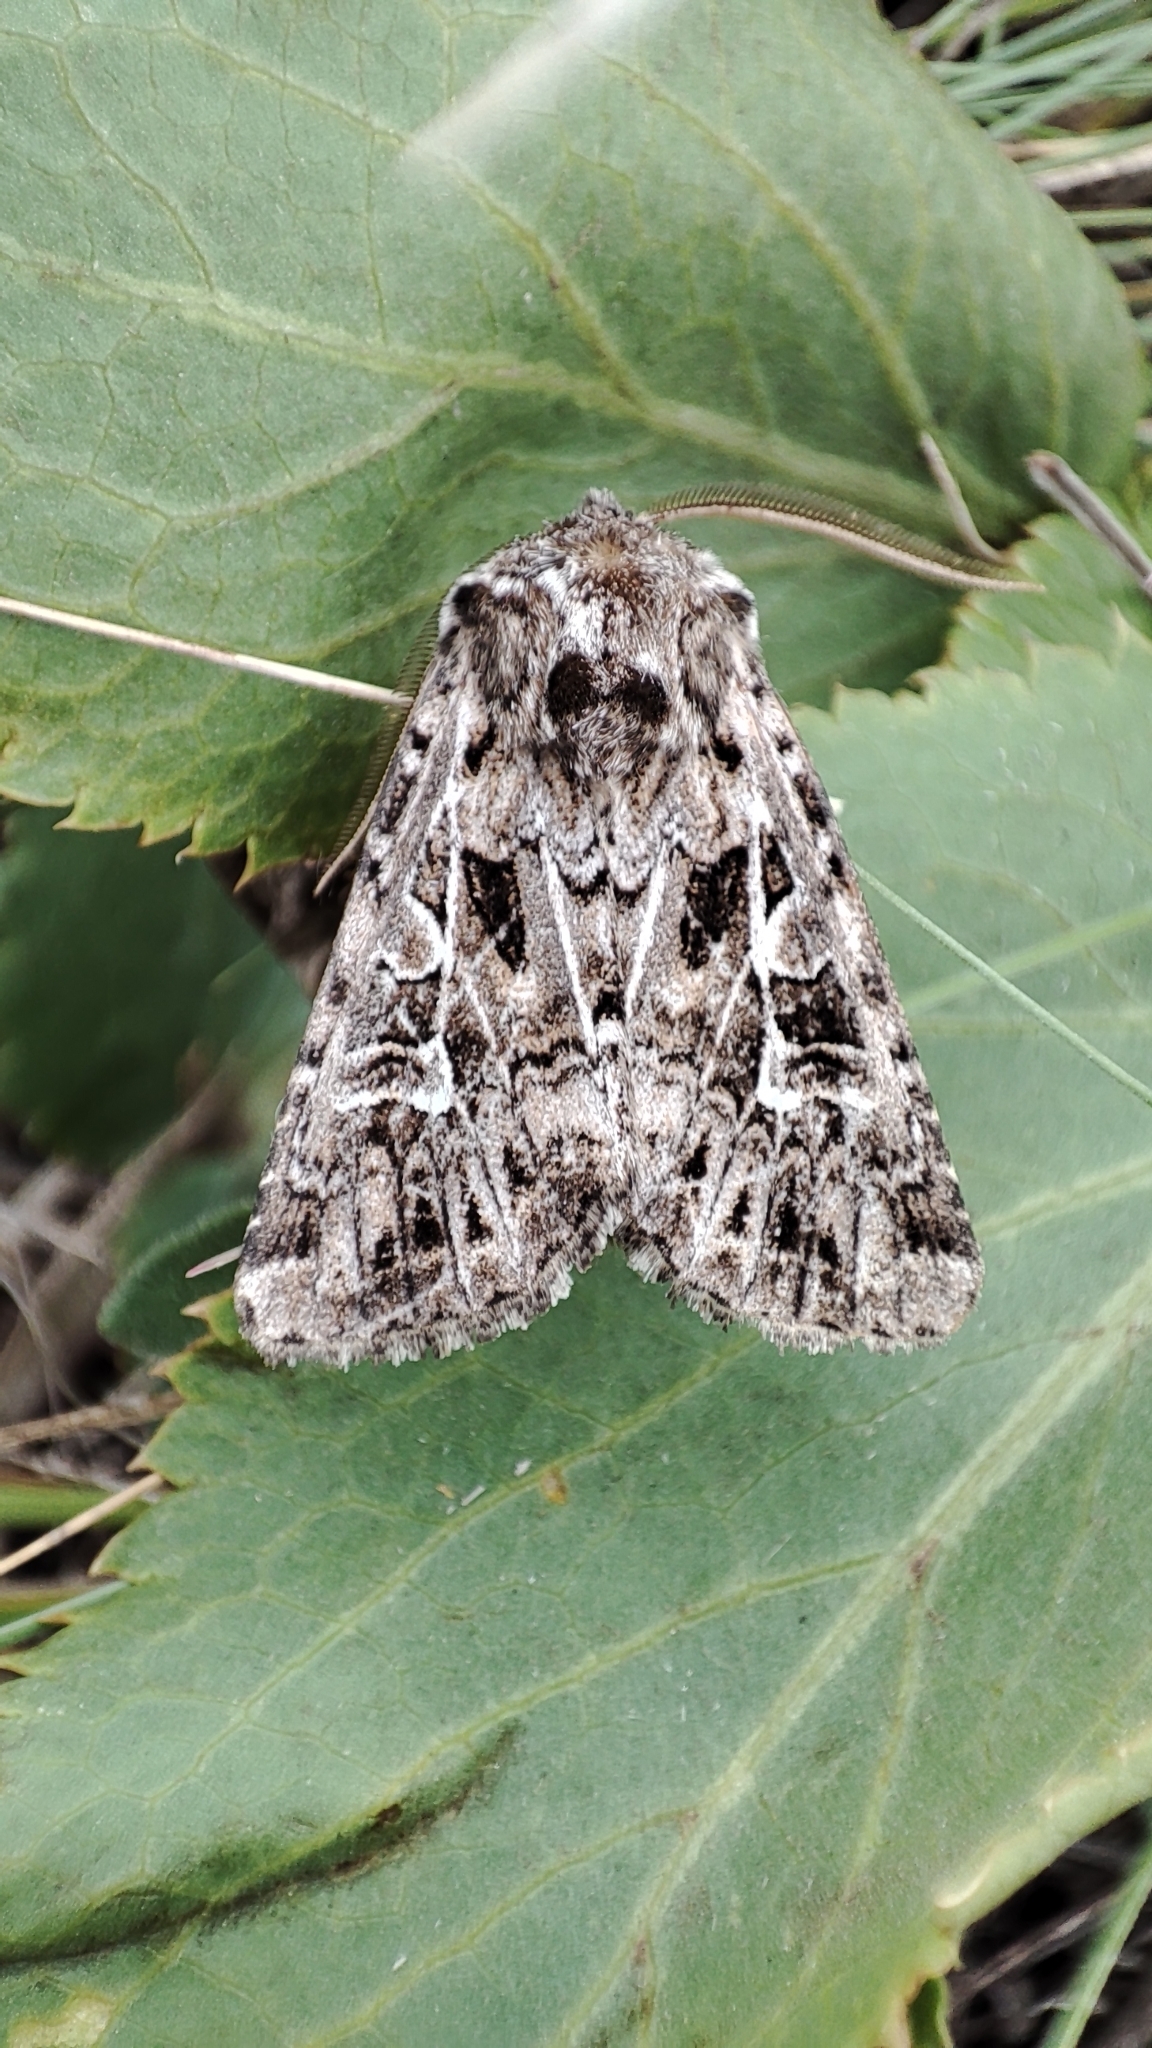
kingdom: Animalia
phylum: Arthropoda
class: Insecta
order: Lepidoptera
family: Noctuidae
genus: Pachetra
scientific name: Pachetra sagittigera
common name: Feathered ear
